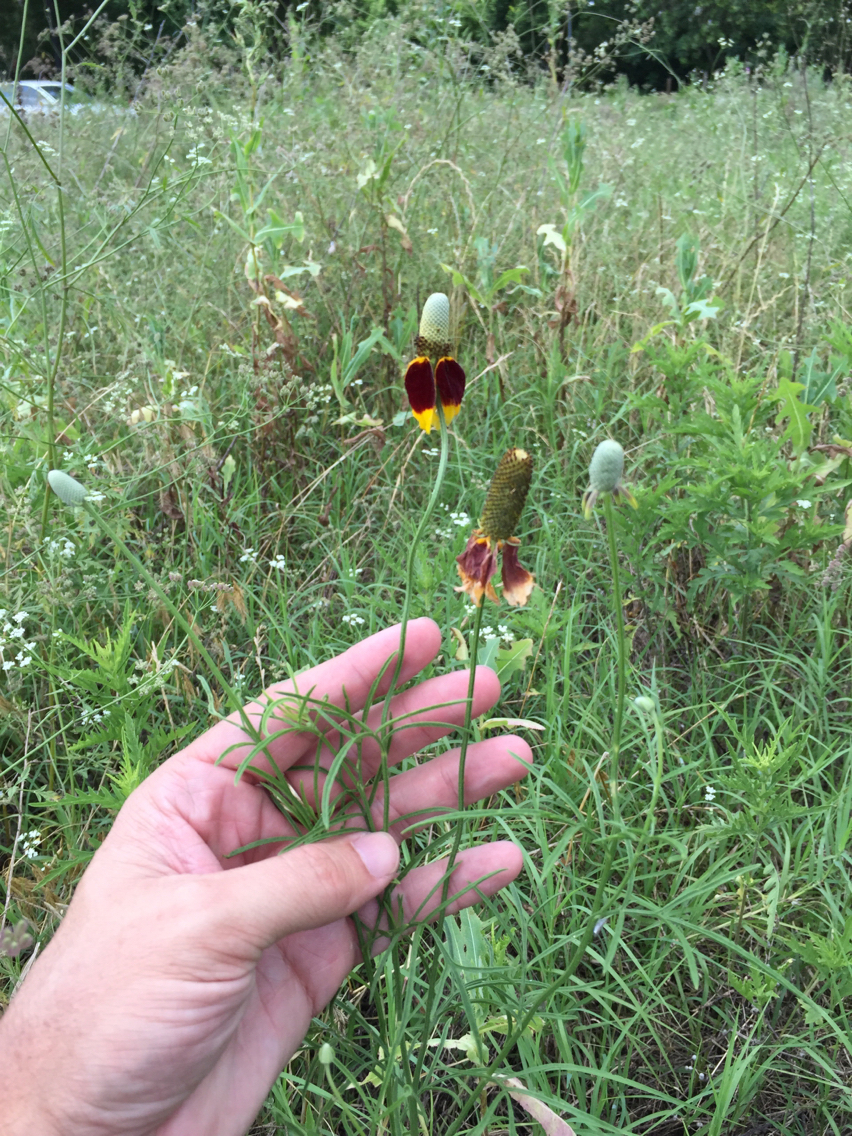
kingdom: Plantae
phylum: Tracheophyta
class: Magnoliopsida
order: Asterales
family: Asteraceae
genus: Ratibida
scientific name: Ratibida columnifera
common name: Prairie coneflower
